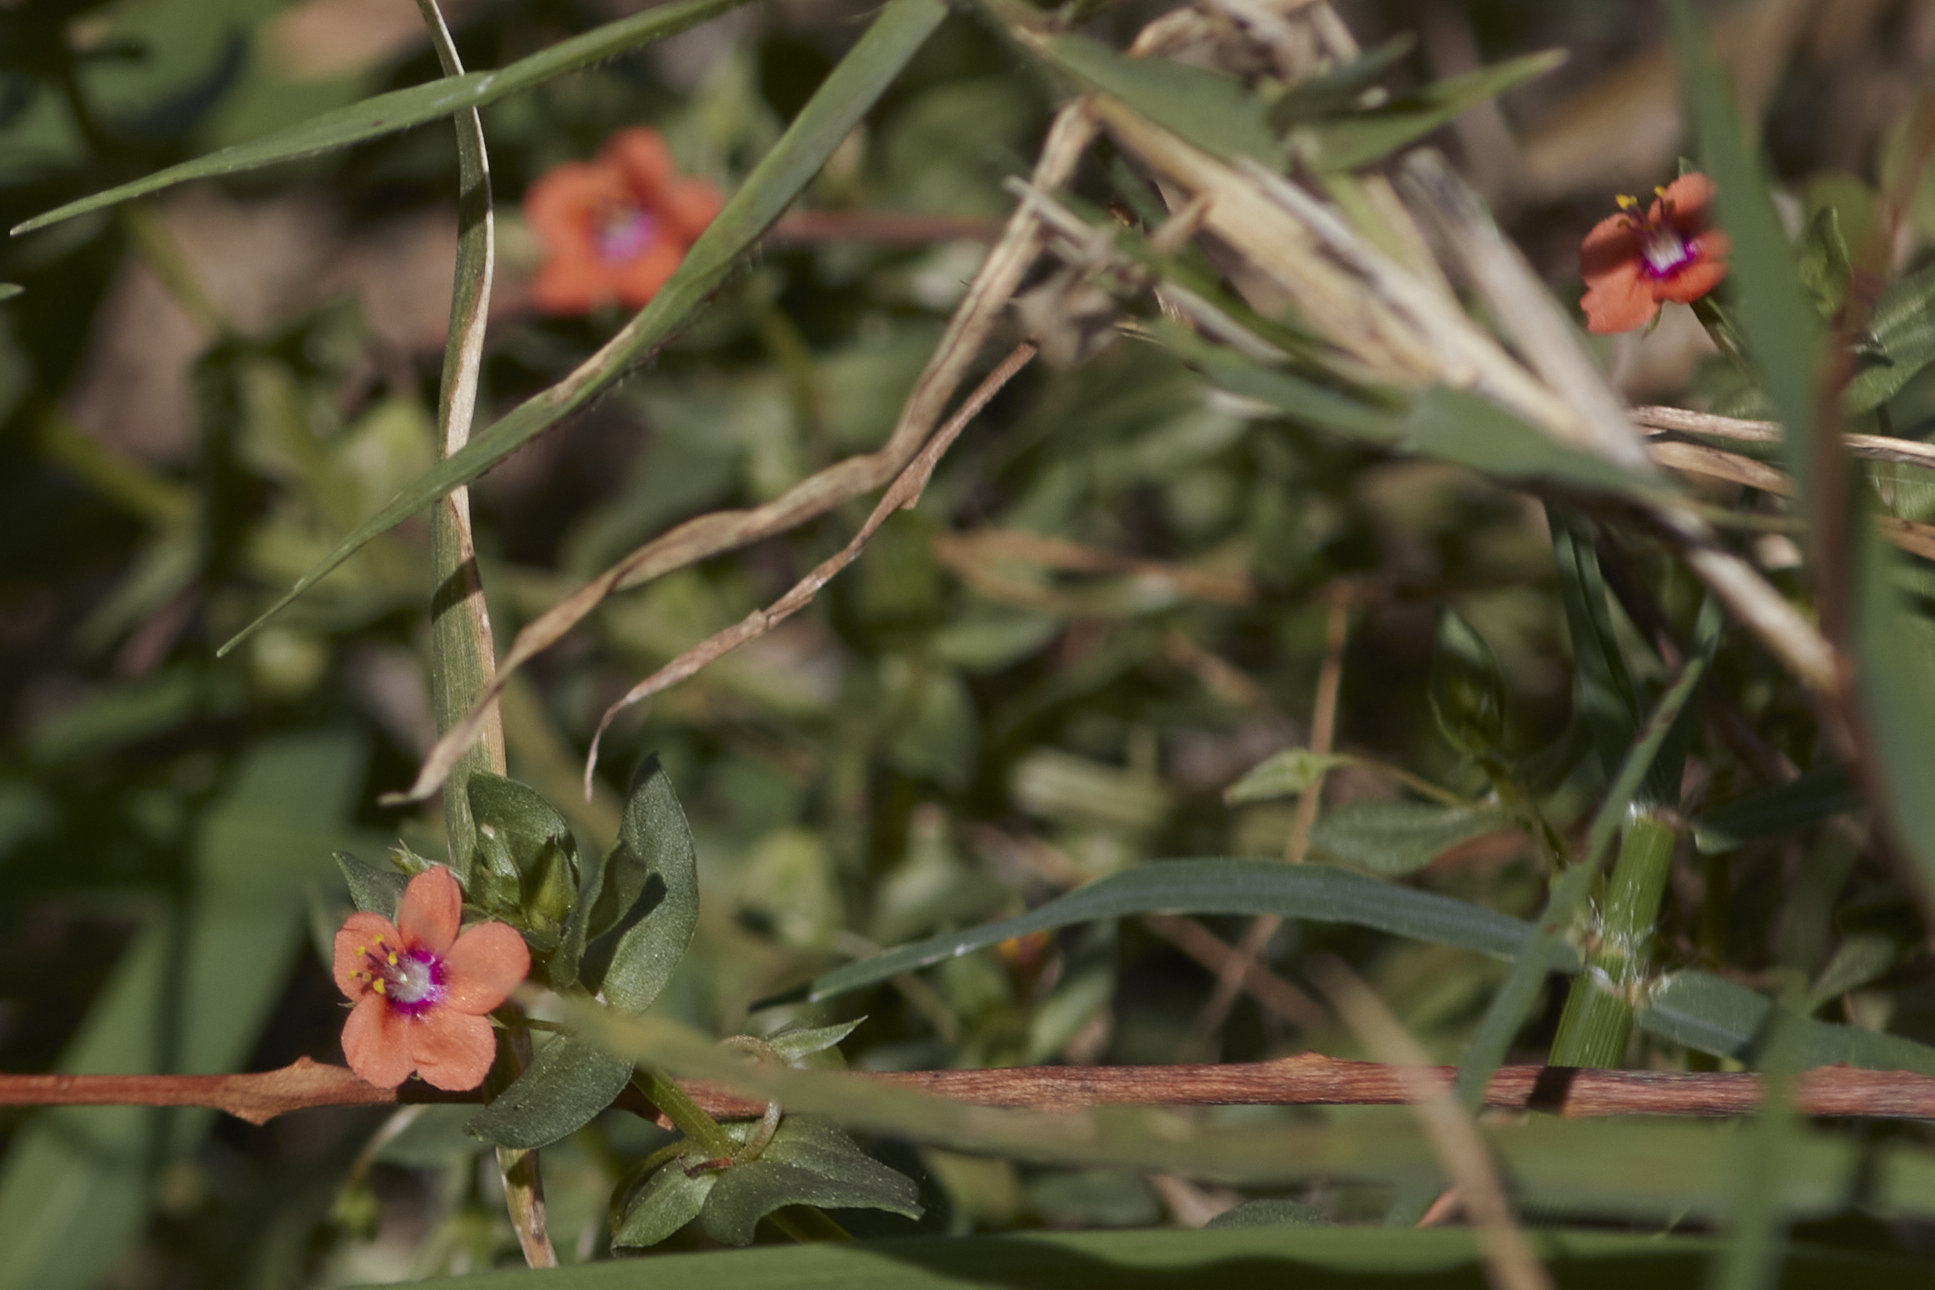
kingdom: Plantae
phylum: Tracheophyta
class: Magnoliopsida
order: Ericales
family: Primulaceae
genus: Lysimachia
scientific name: Lysimachia arvensis
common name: Scarlet pimpernel
